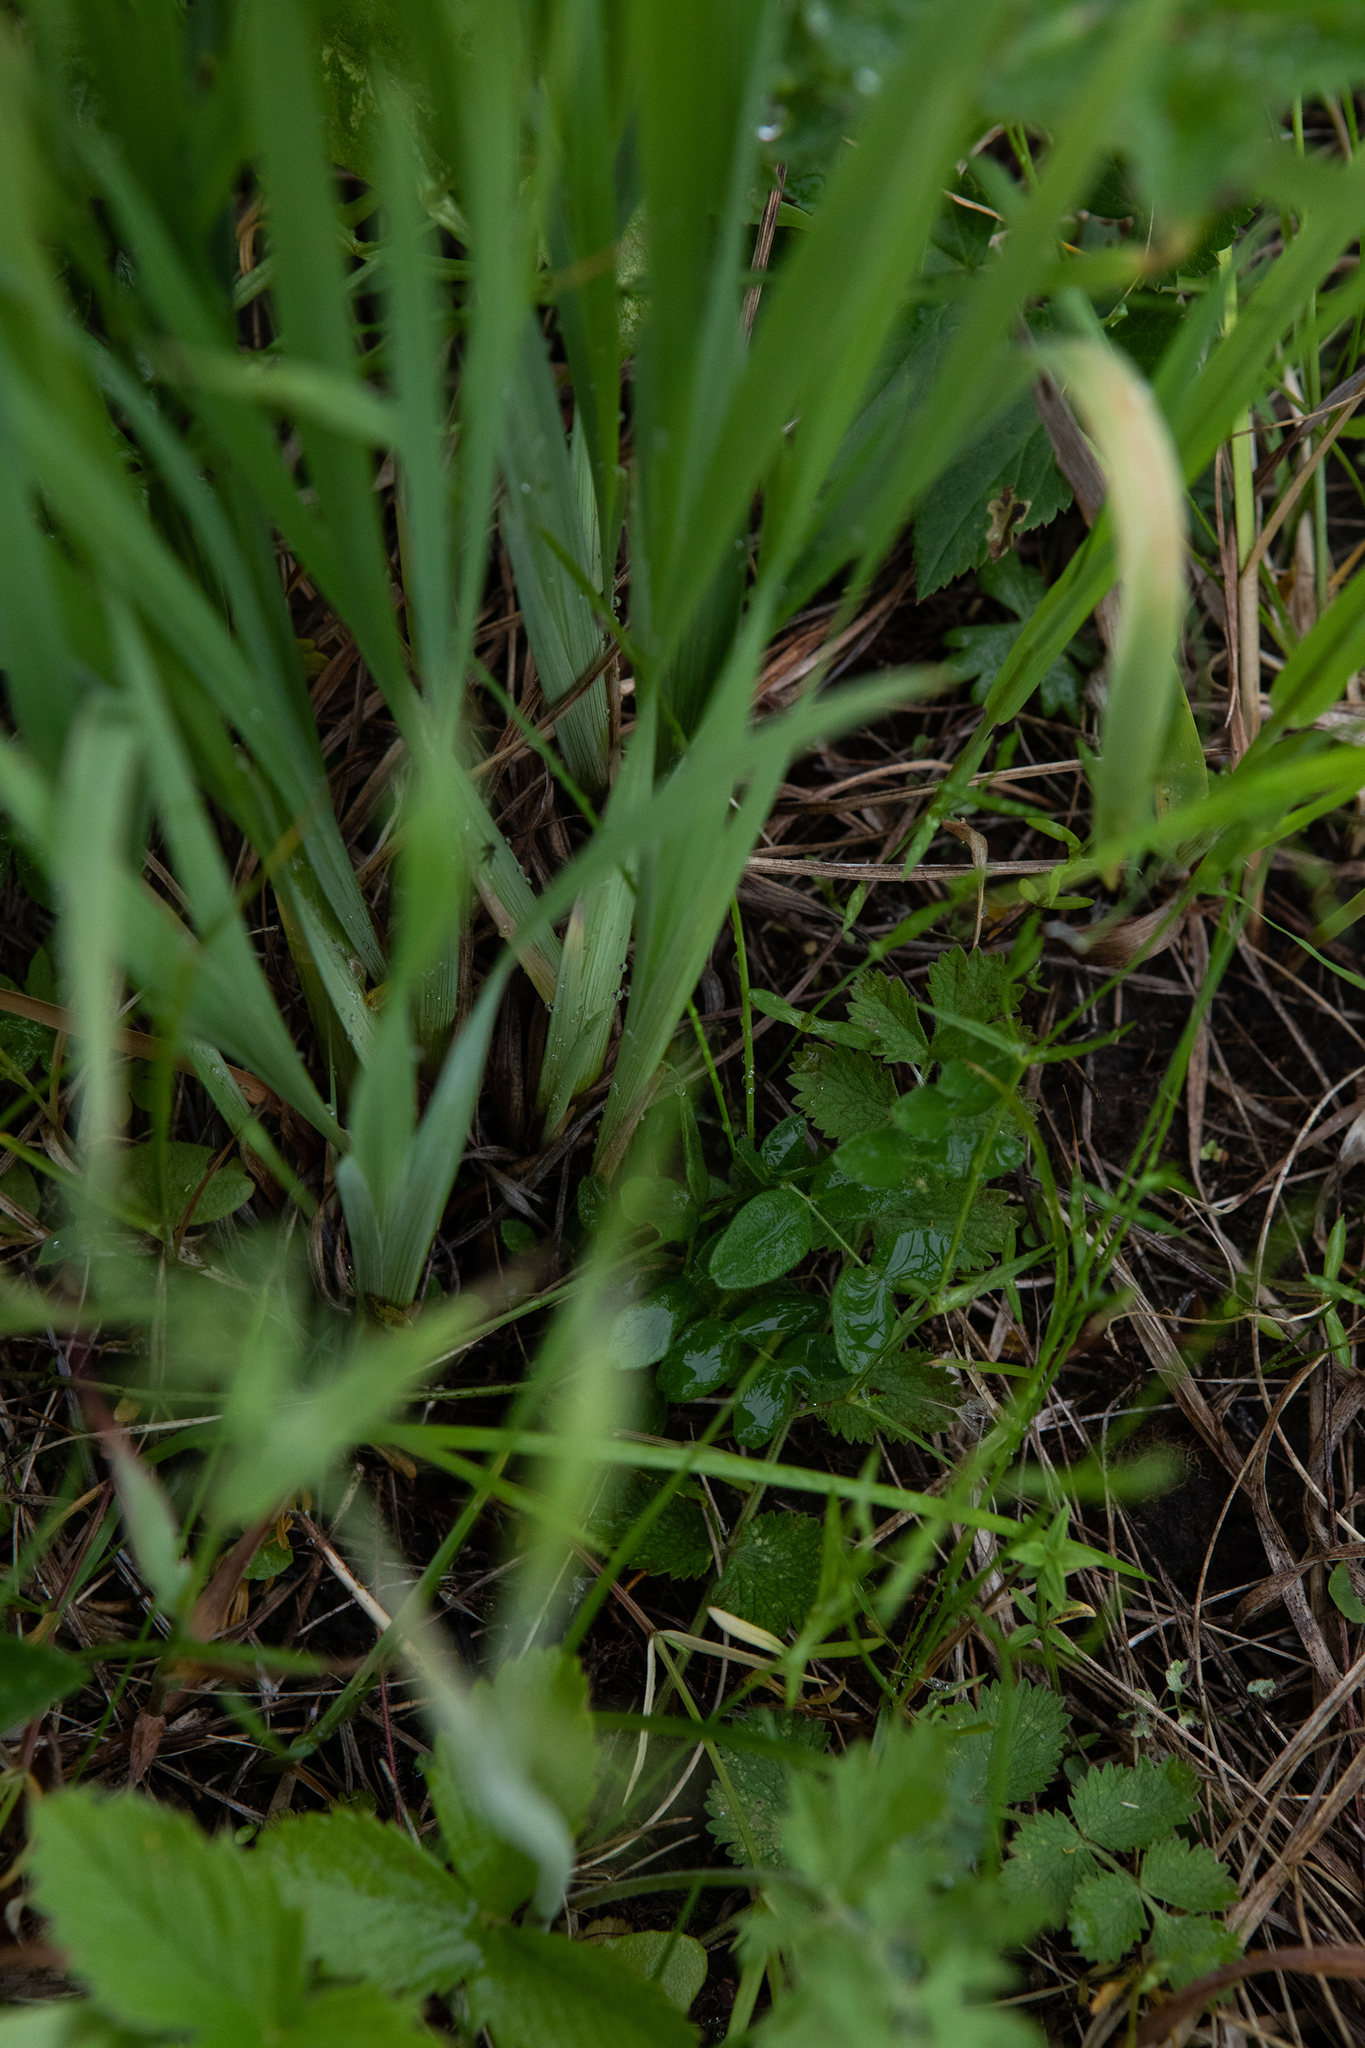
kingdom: Plantae
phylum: Tracheophyta
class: Liliopsida
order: Asparagales
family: Iridaceae
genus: Iris
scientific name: Iris sibirica
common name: Siberian iris
